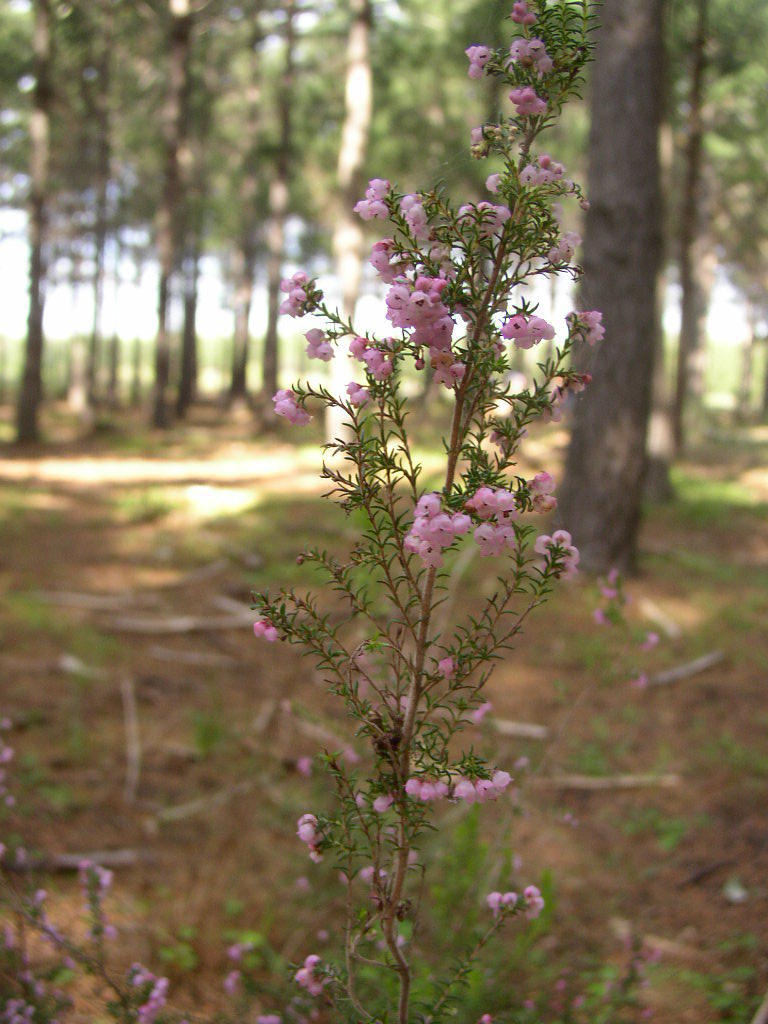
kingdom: Plantae
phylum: Tracheophyta
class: Magnoliopsida
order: Ericales
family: Ericaceae
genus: Erica
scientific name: Erica mauritanica
